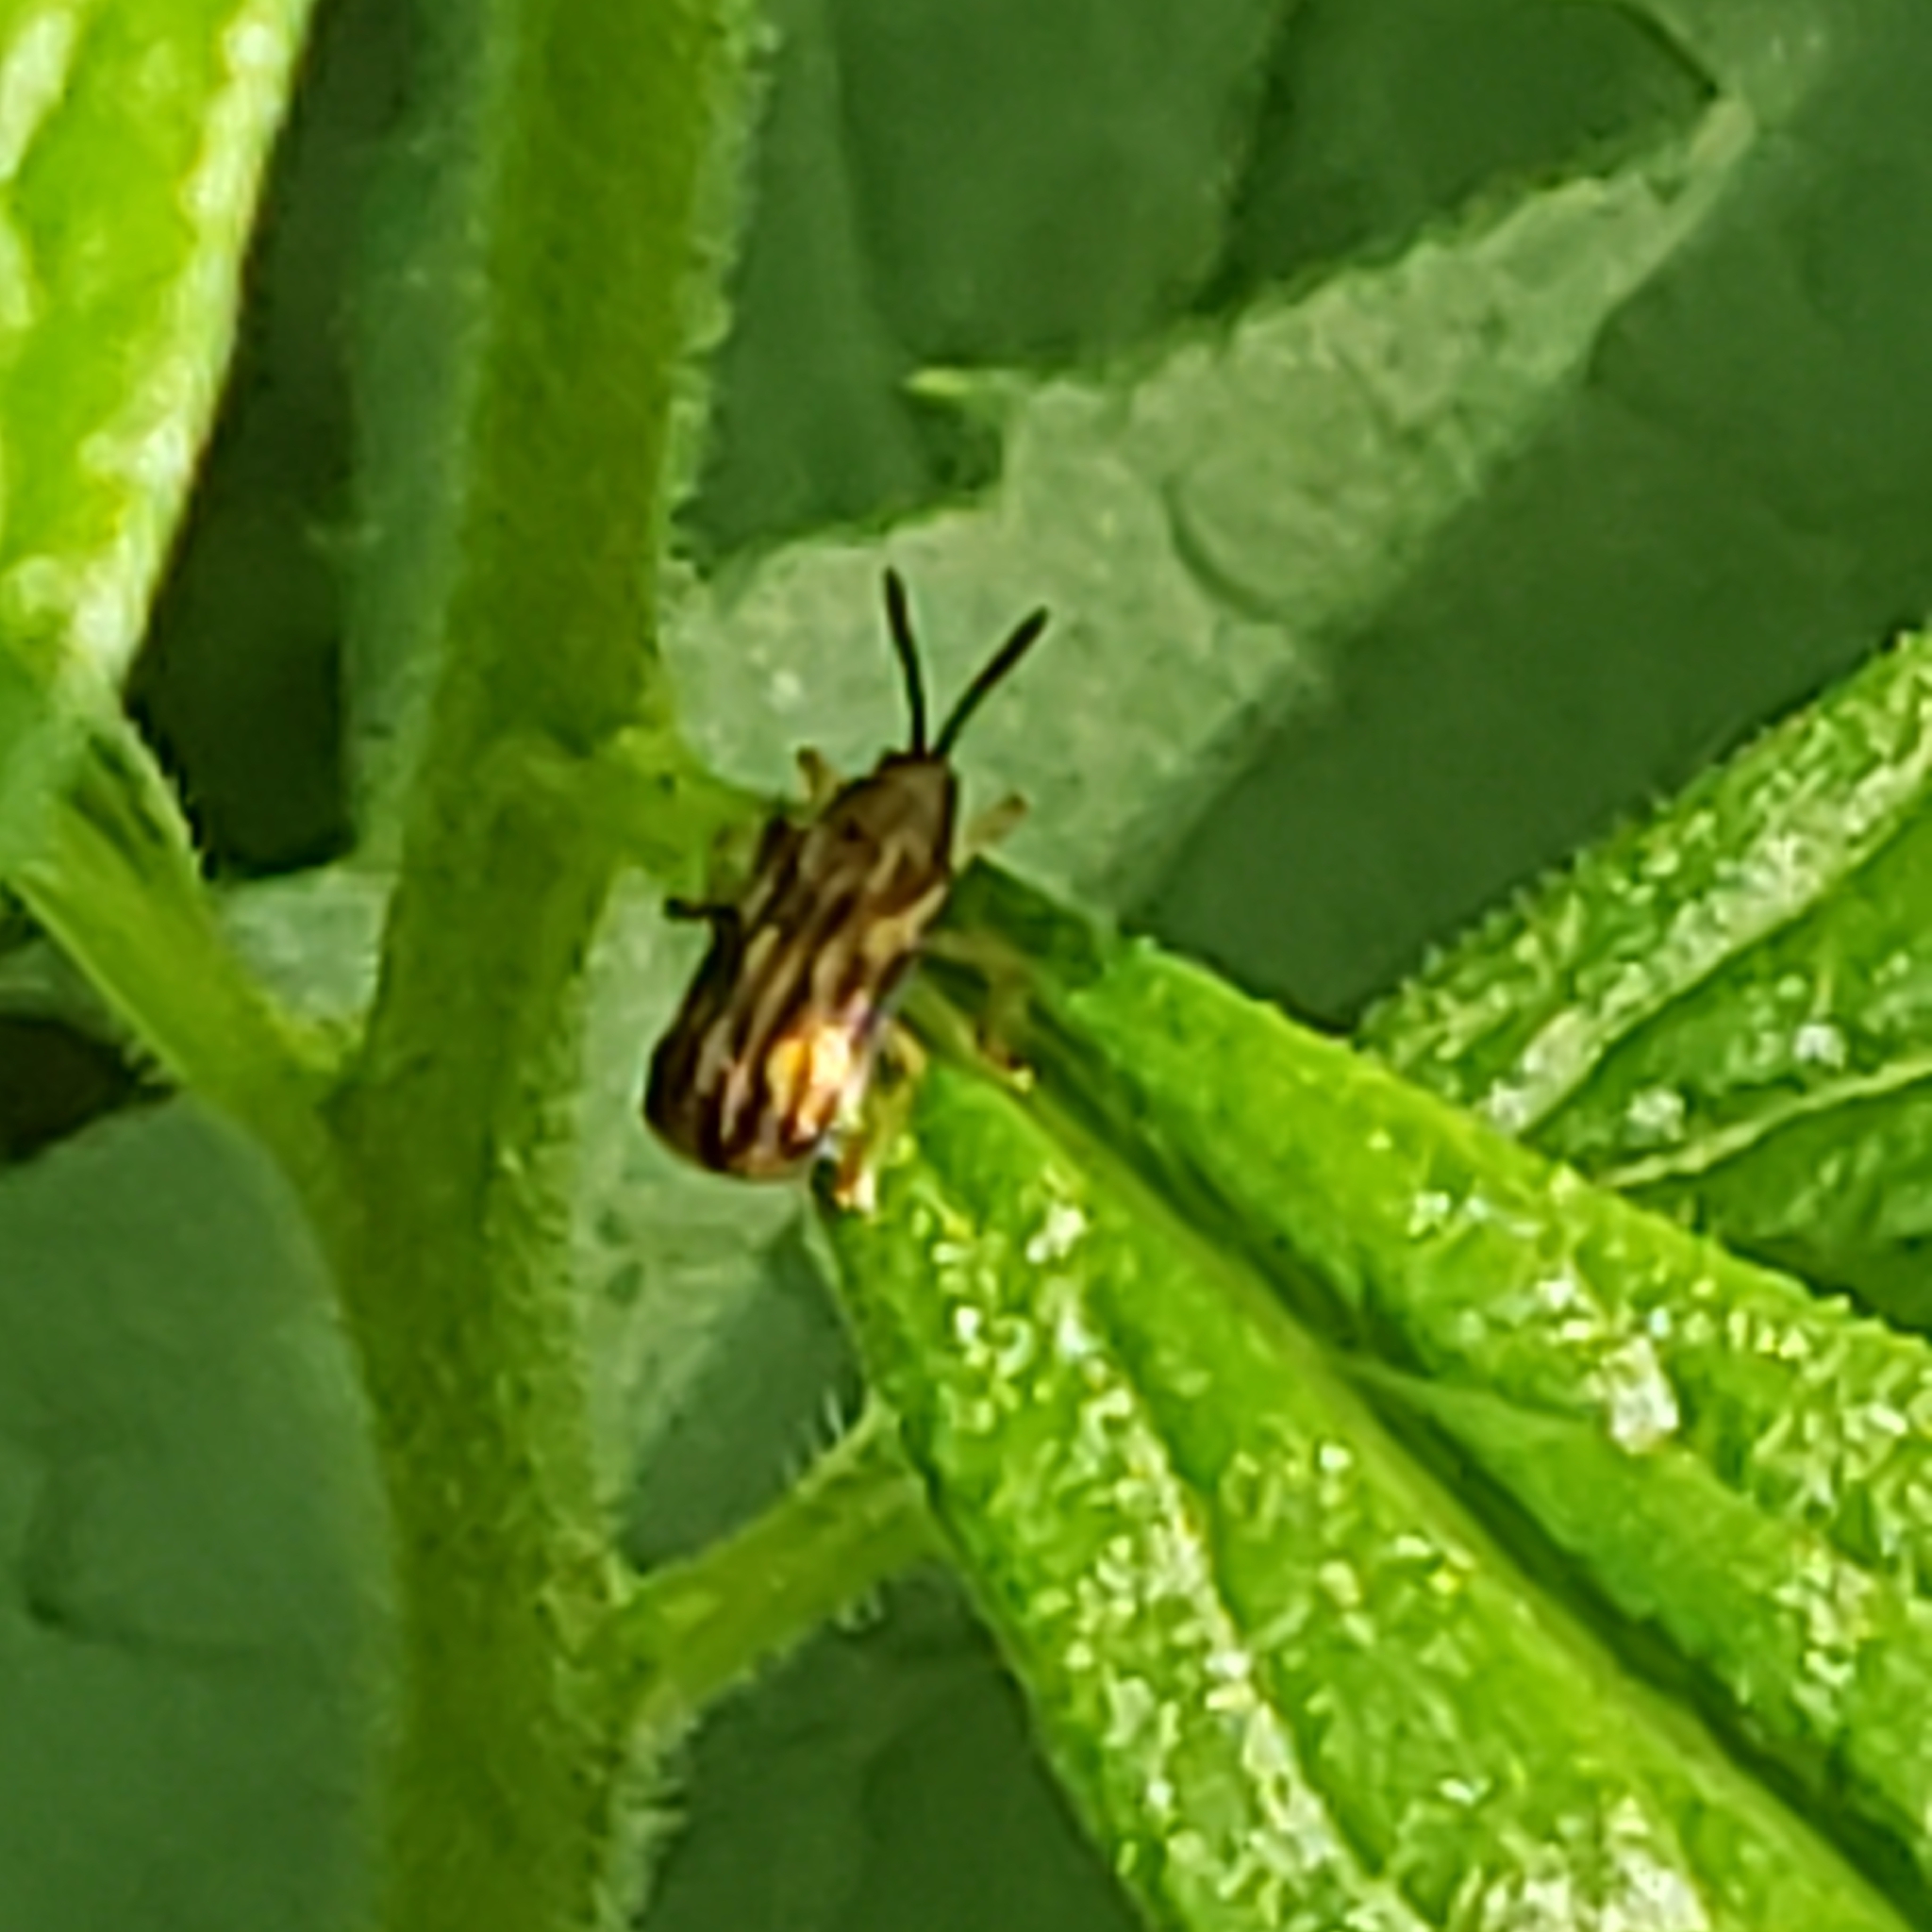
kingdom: Animalia
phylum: Arthropoda
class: Insecta
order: Coleoptera
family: Chrysomelidae
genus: Sumitrosis
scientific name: Sumitrosis inaequalis
